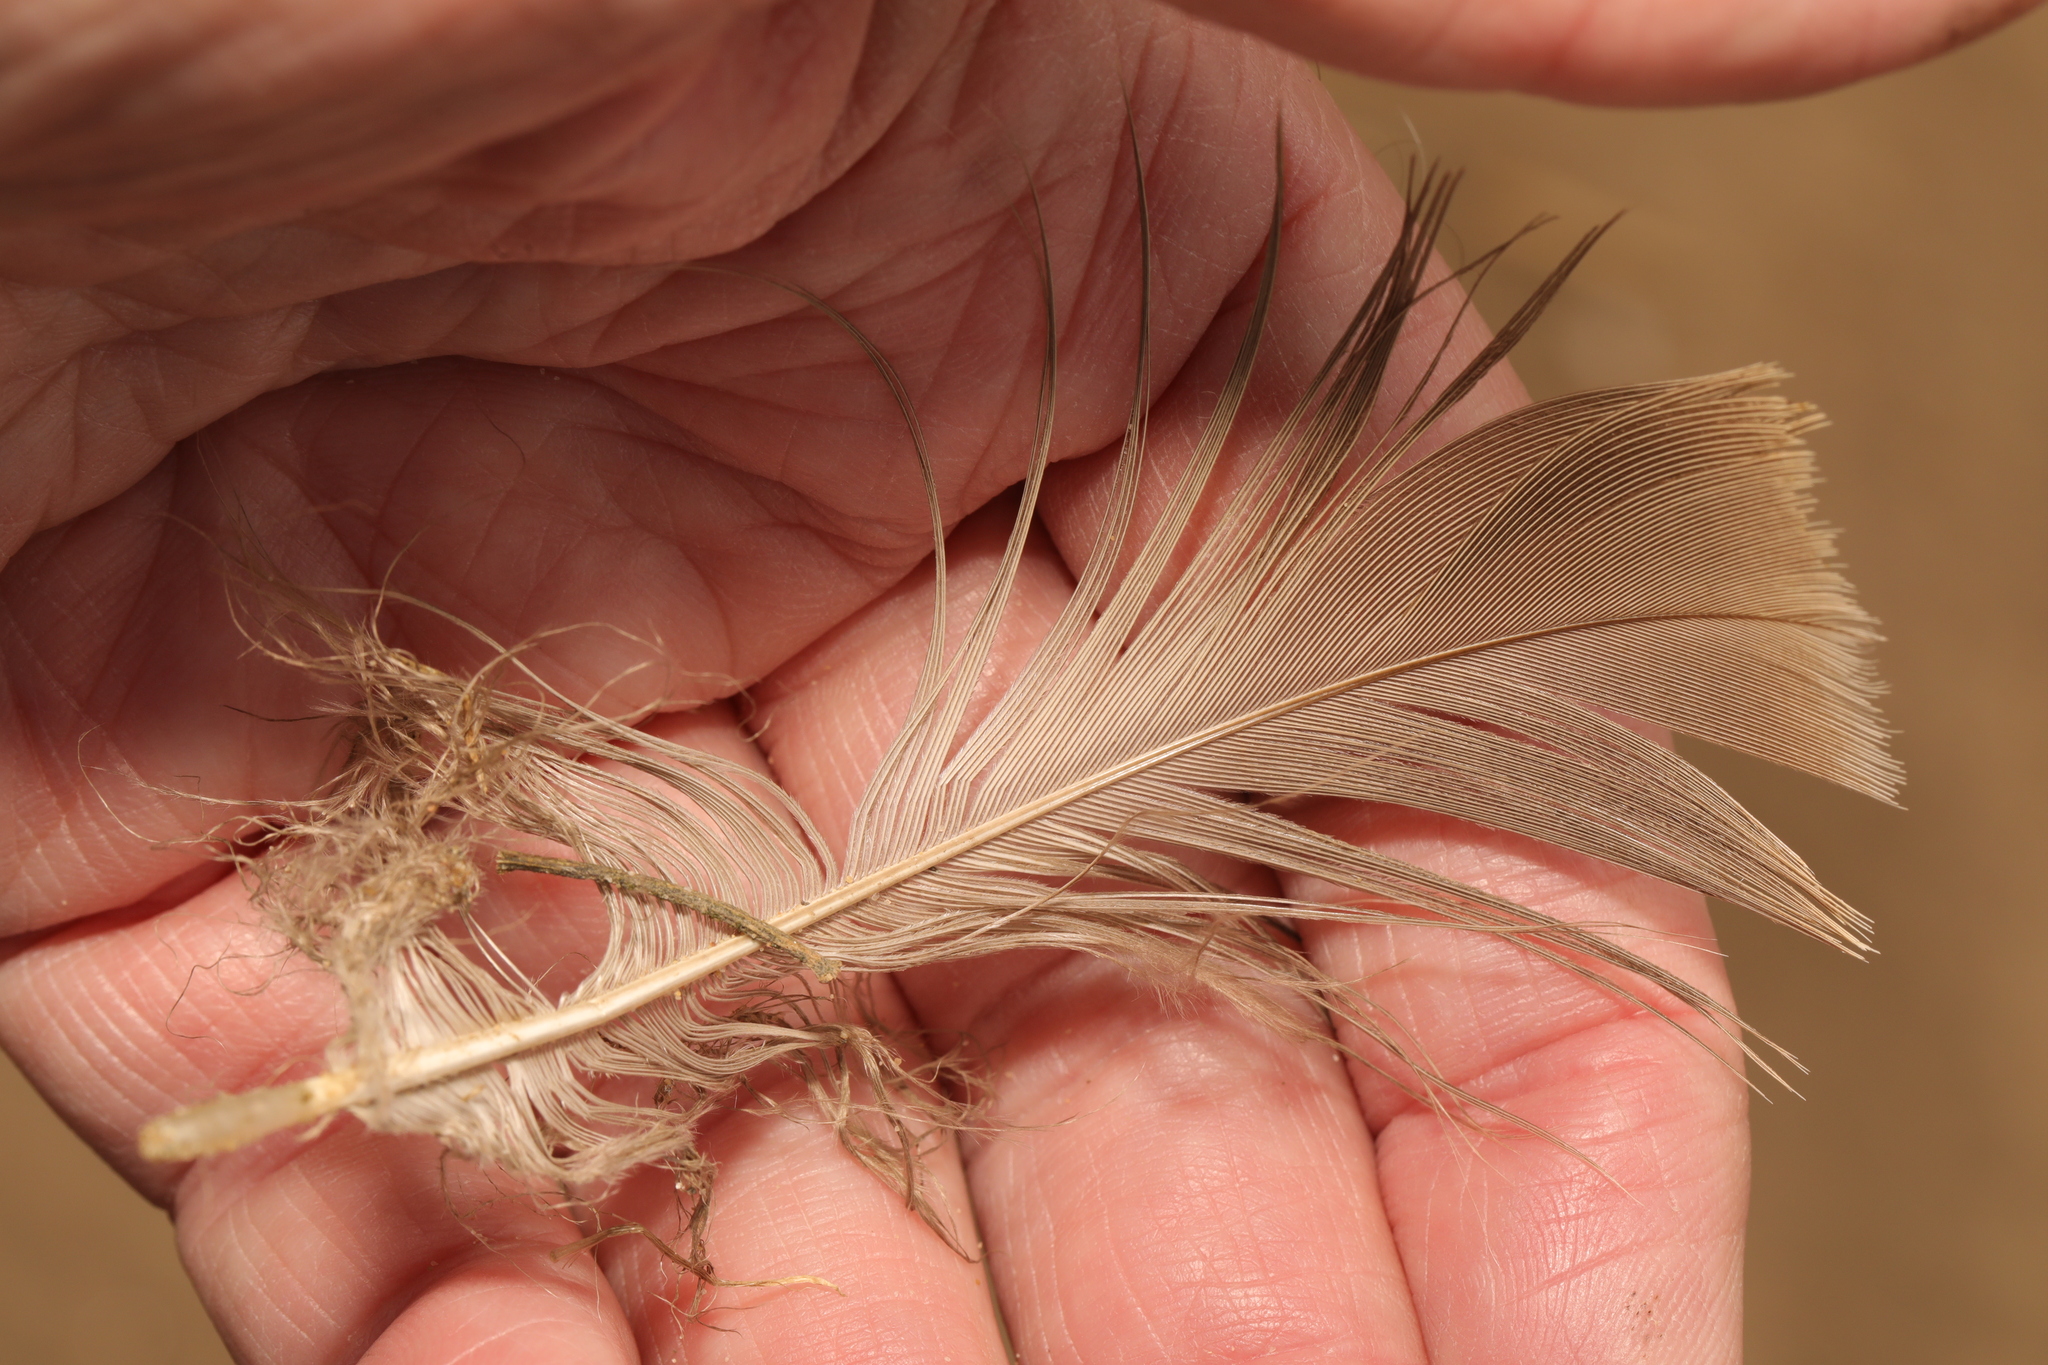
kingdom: Animalia
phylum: Chordata
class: Aves
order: Anseriformes
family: Anatidae
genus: Branta
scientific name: Branta canadensis
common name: Canada goose
